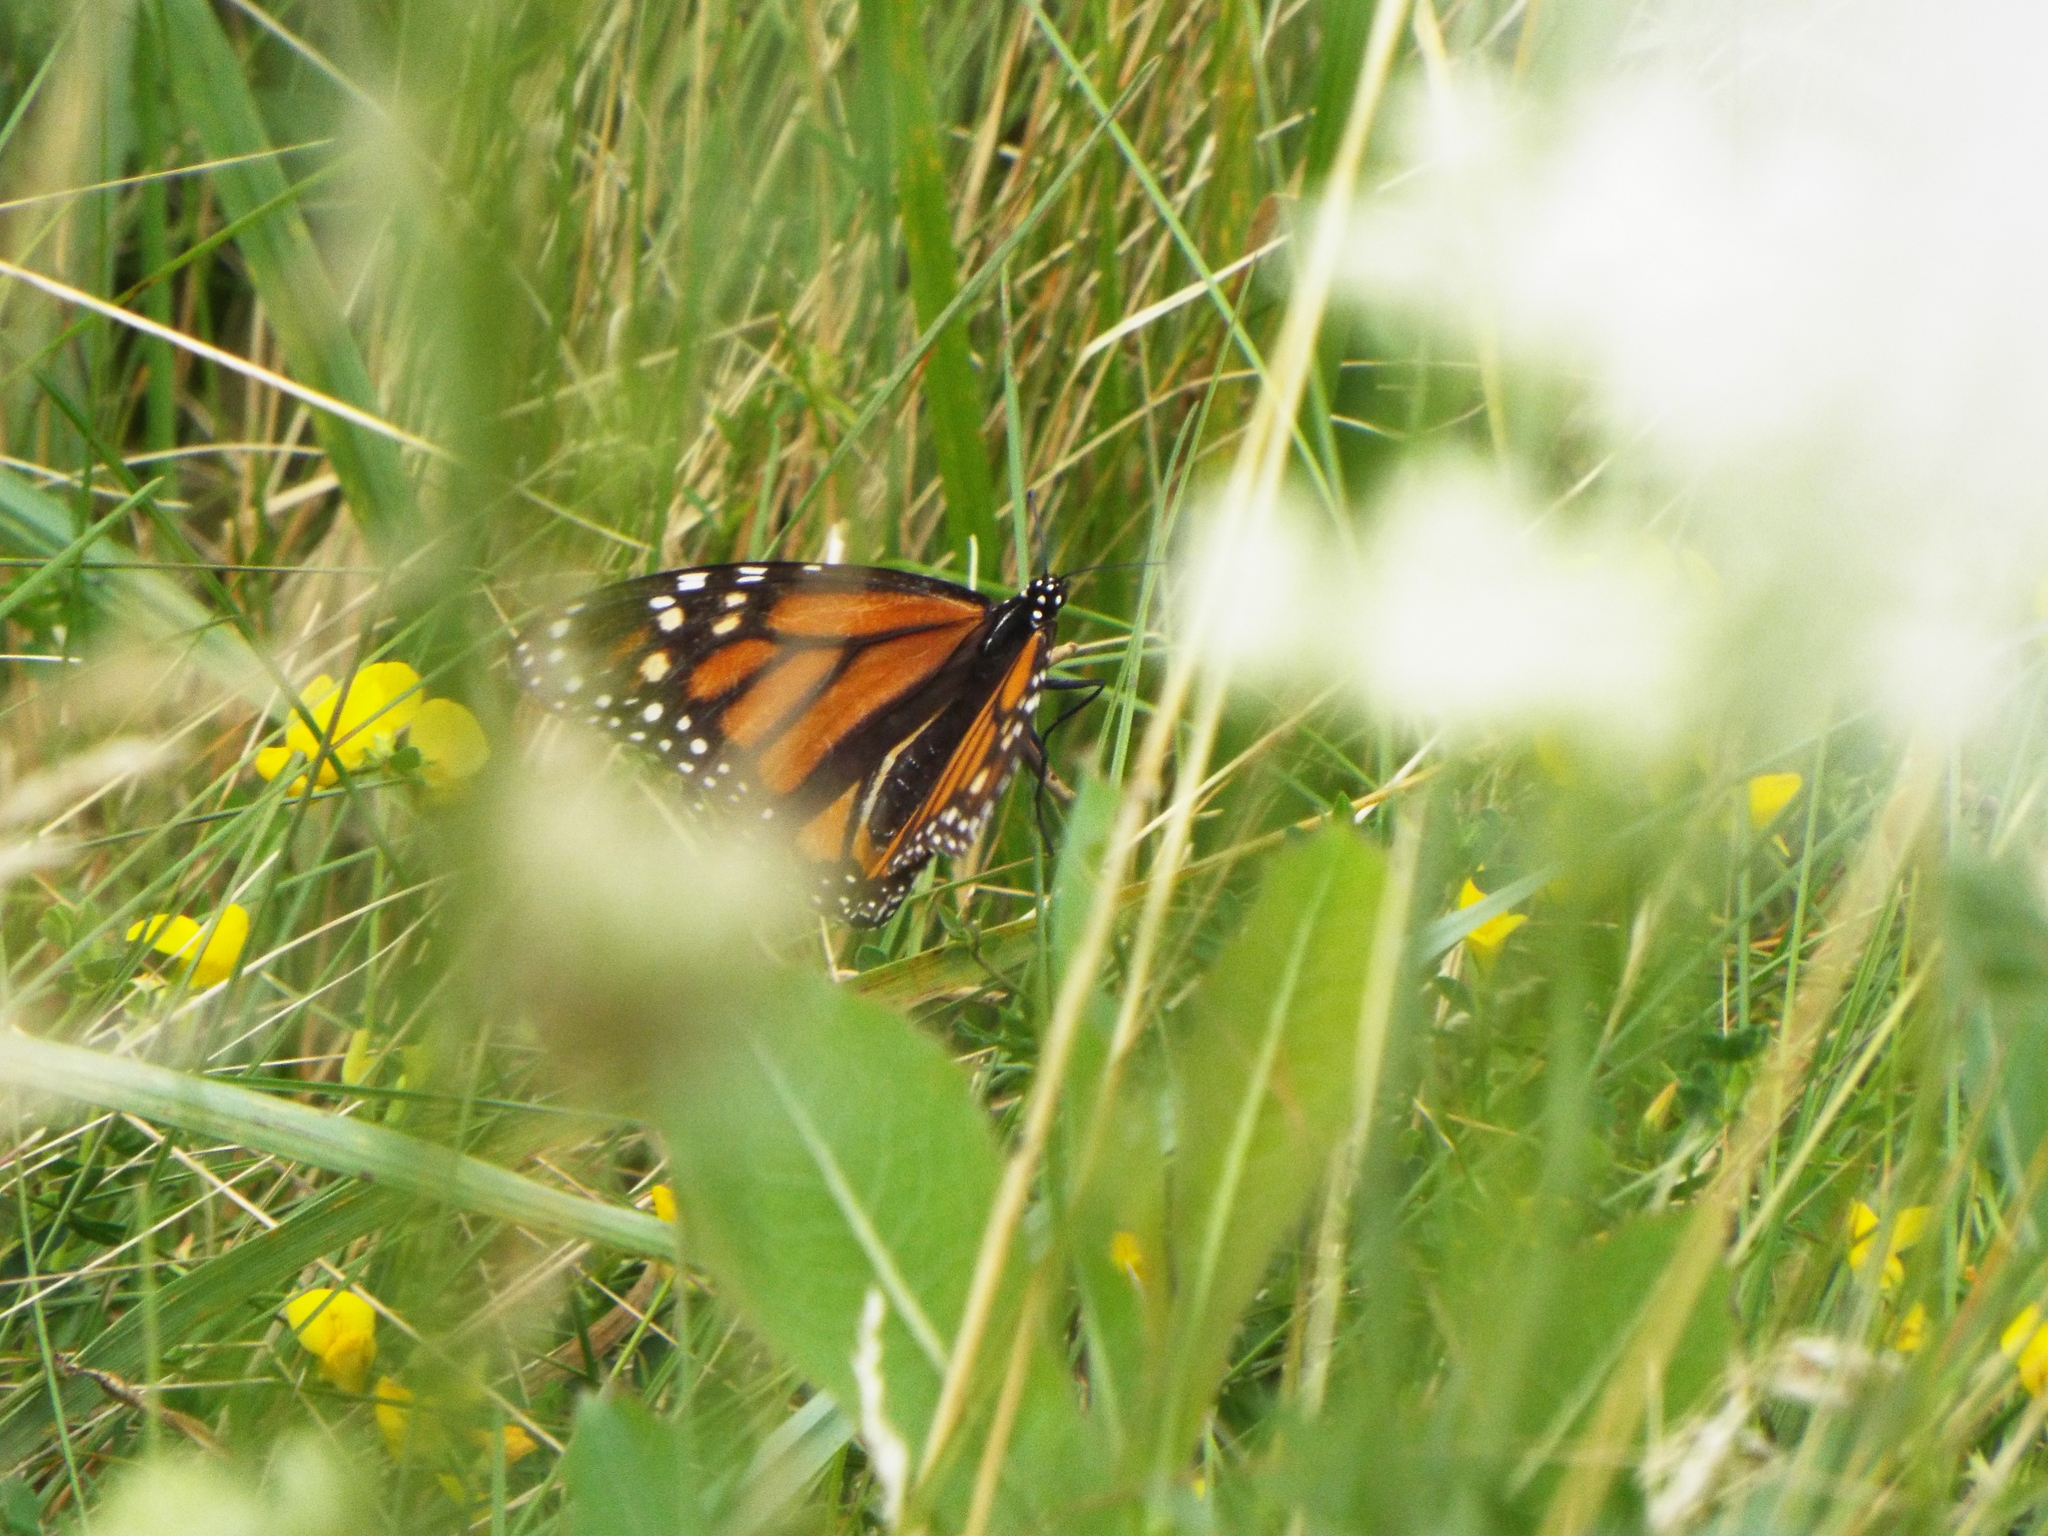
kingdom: Animalia
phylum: Arthropoda
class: Insecta
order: Lepidoptera
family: Nymphalidae
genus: Danaus
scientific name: Danaus plexippus
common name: Monarch
